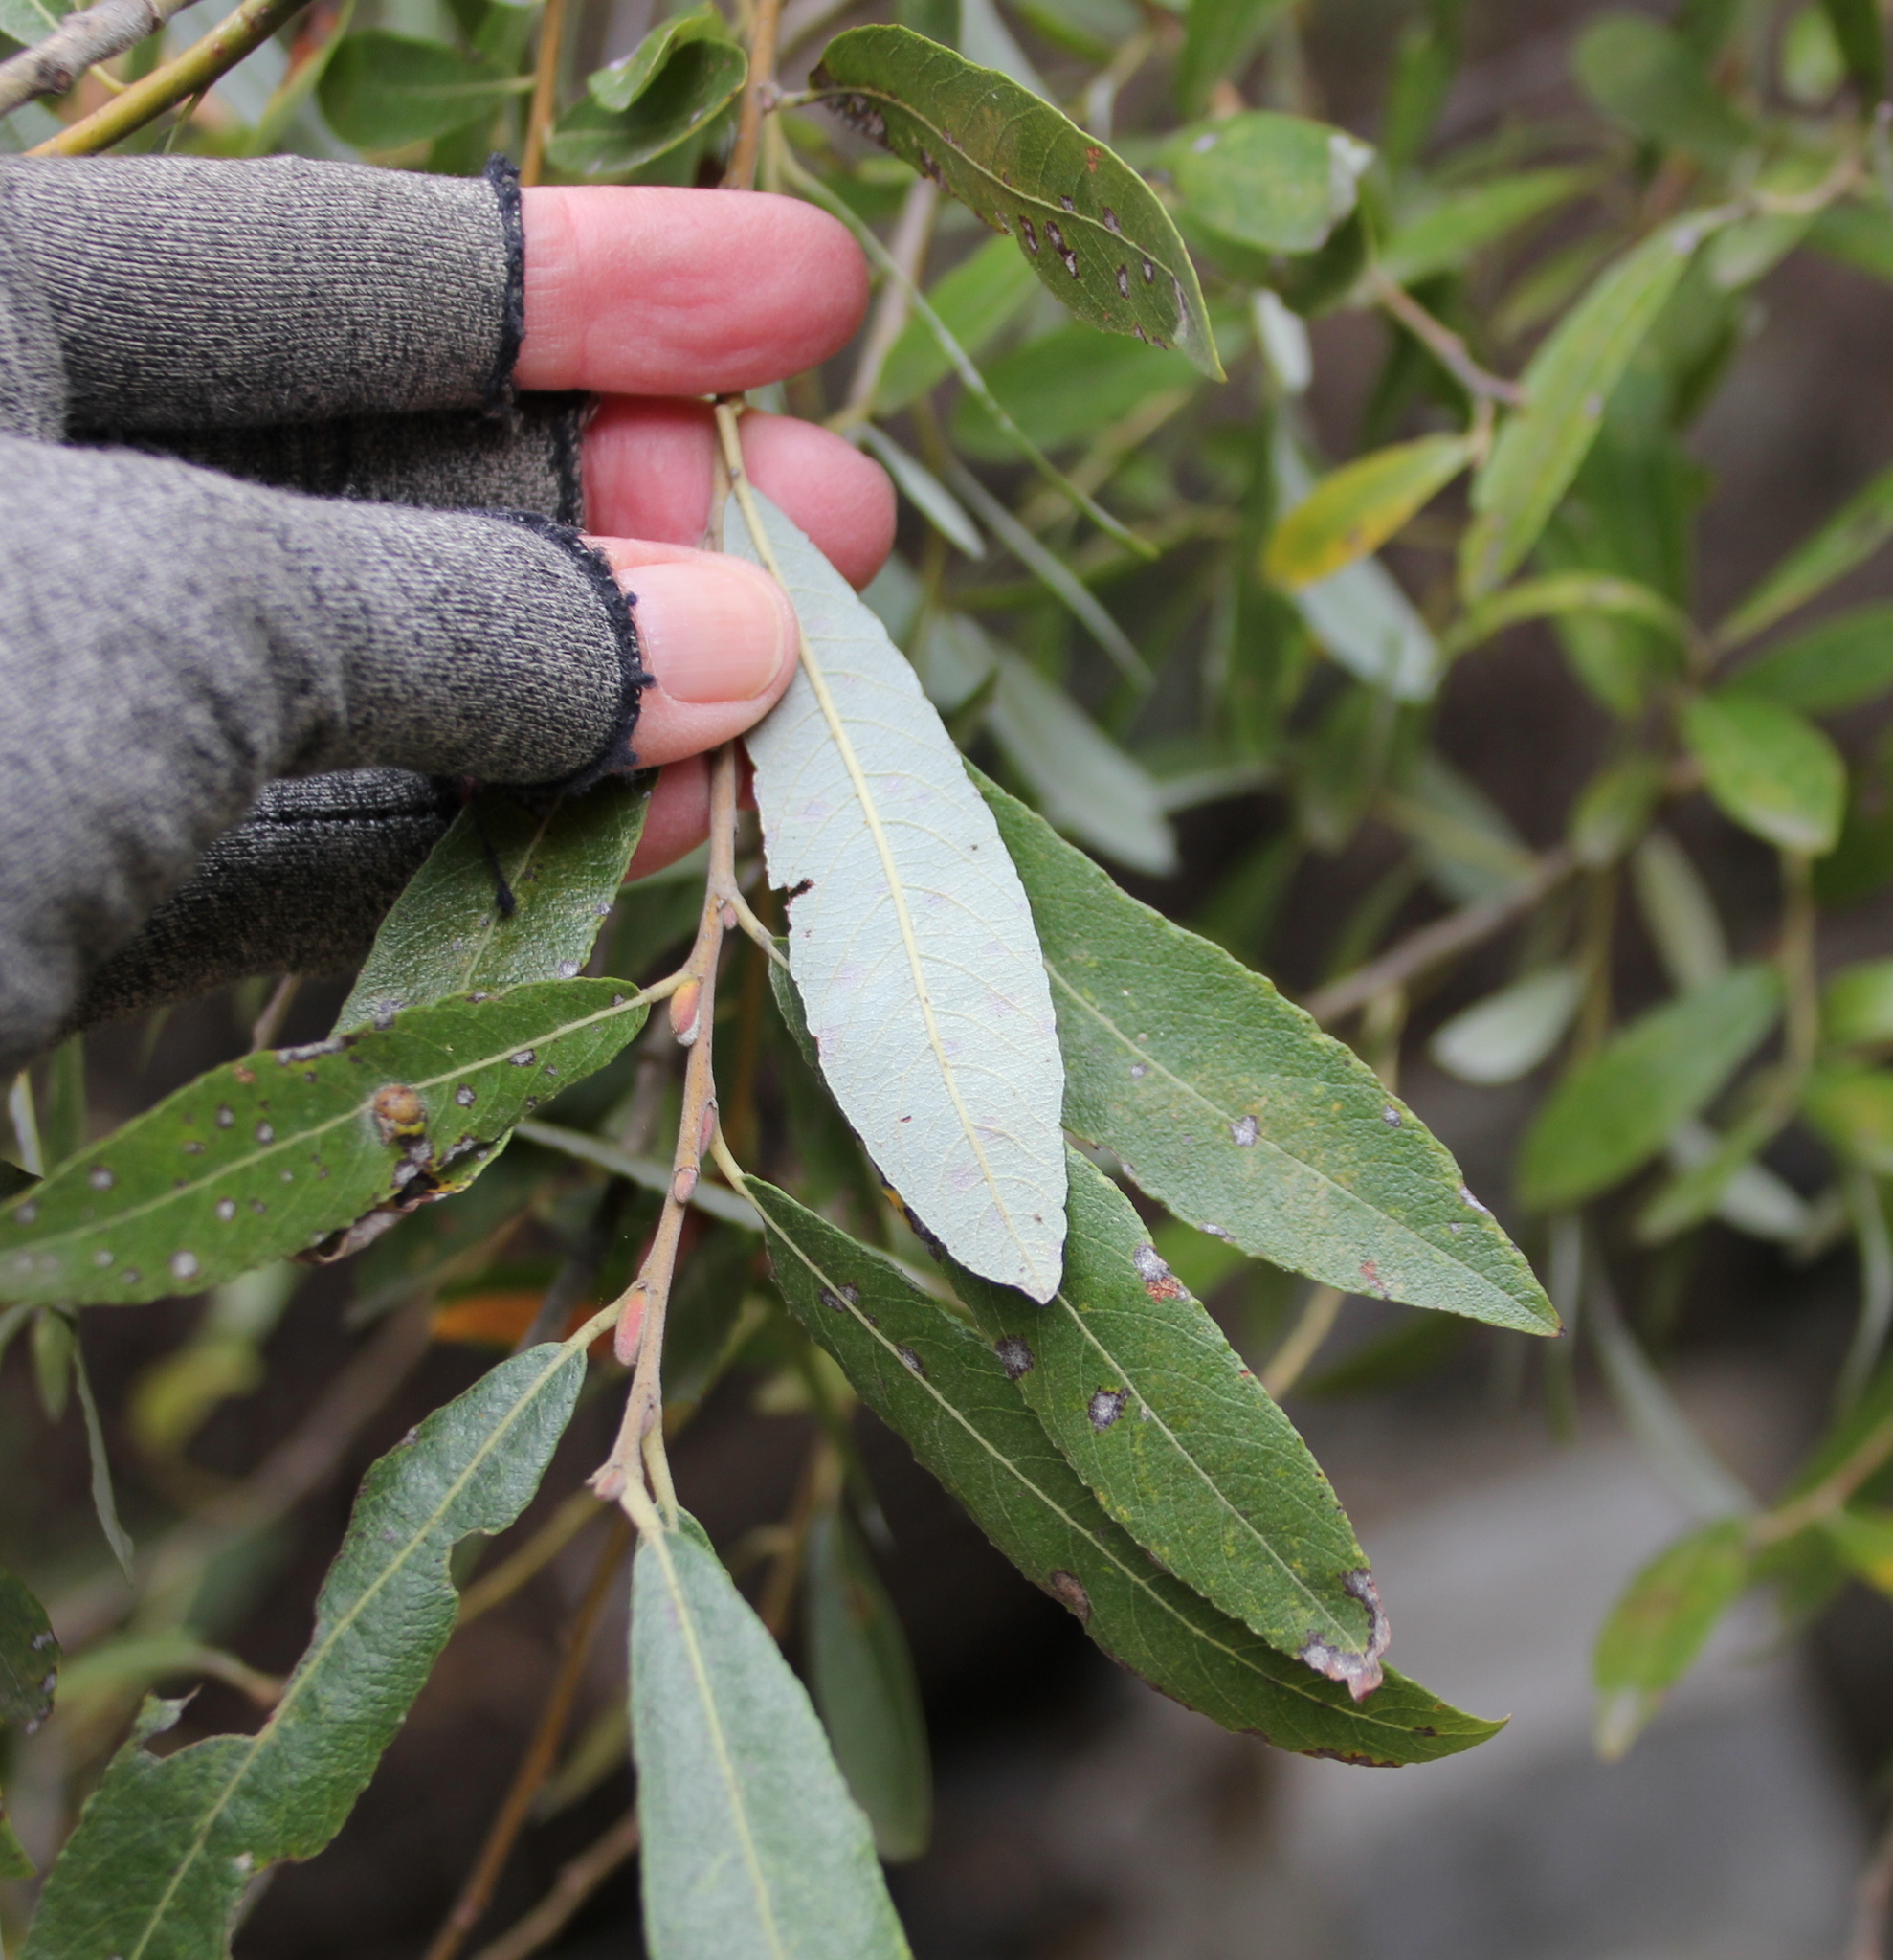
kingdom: Plantae
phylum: Tracheophyta
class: Magnoliopsida
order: Malpighiales
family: Salicaceae
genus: Salix
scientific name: Salix lasiolepis
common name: Arroyo willow
